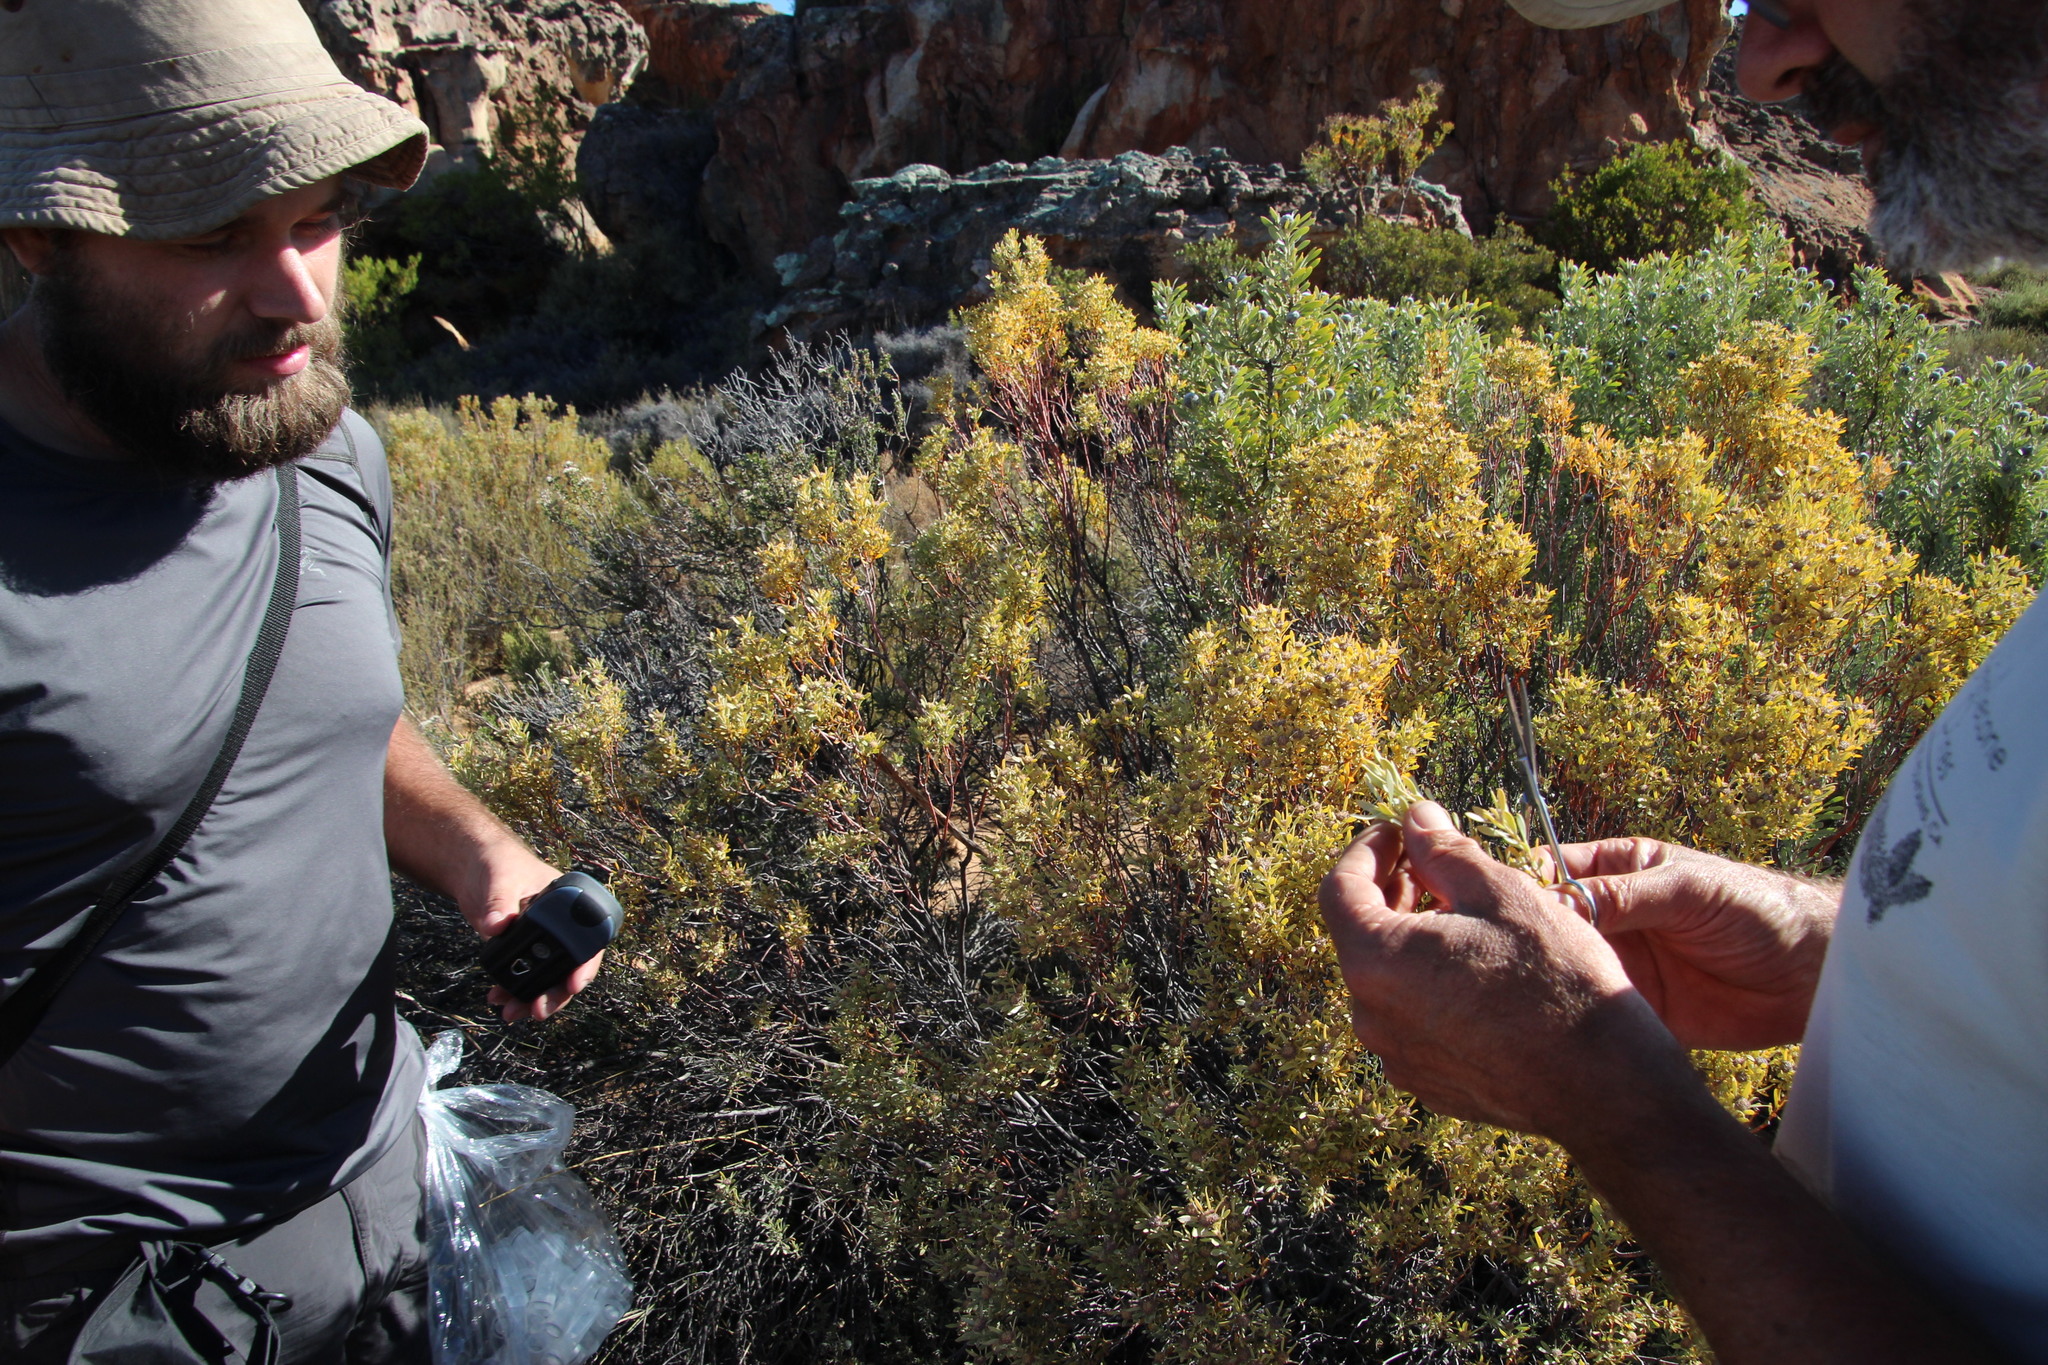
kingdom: Plantae
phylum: Tracheophyta
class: Magnoliopsida
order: Proteales
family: Proteaceae
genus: Leucadendron
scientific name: Leucadendron pubescens
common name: Grey conebush
